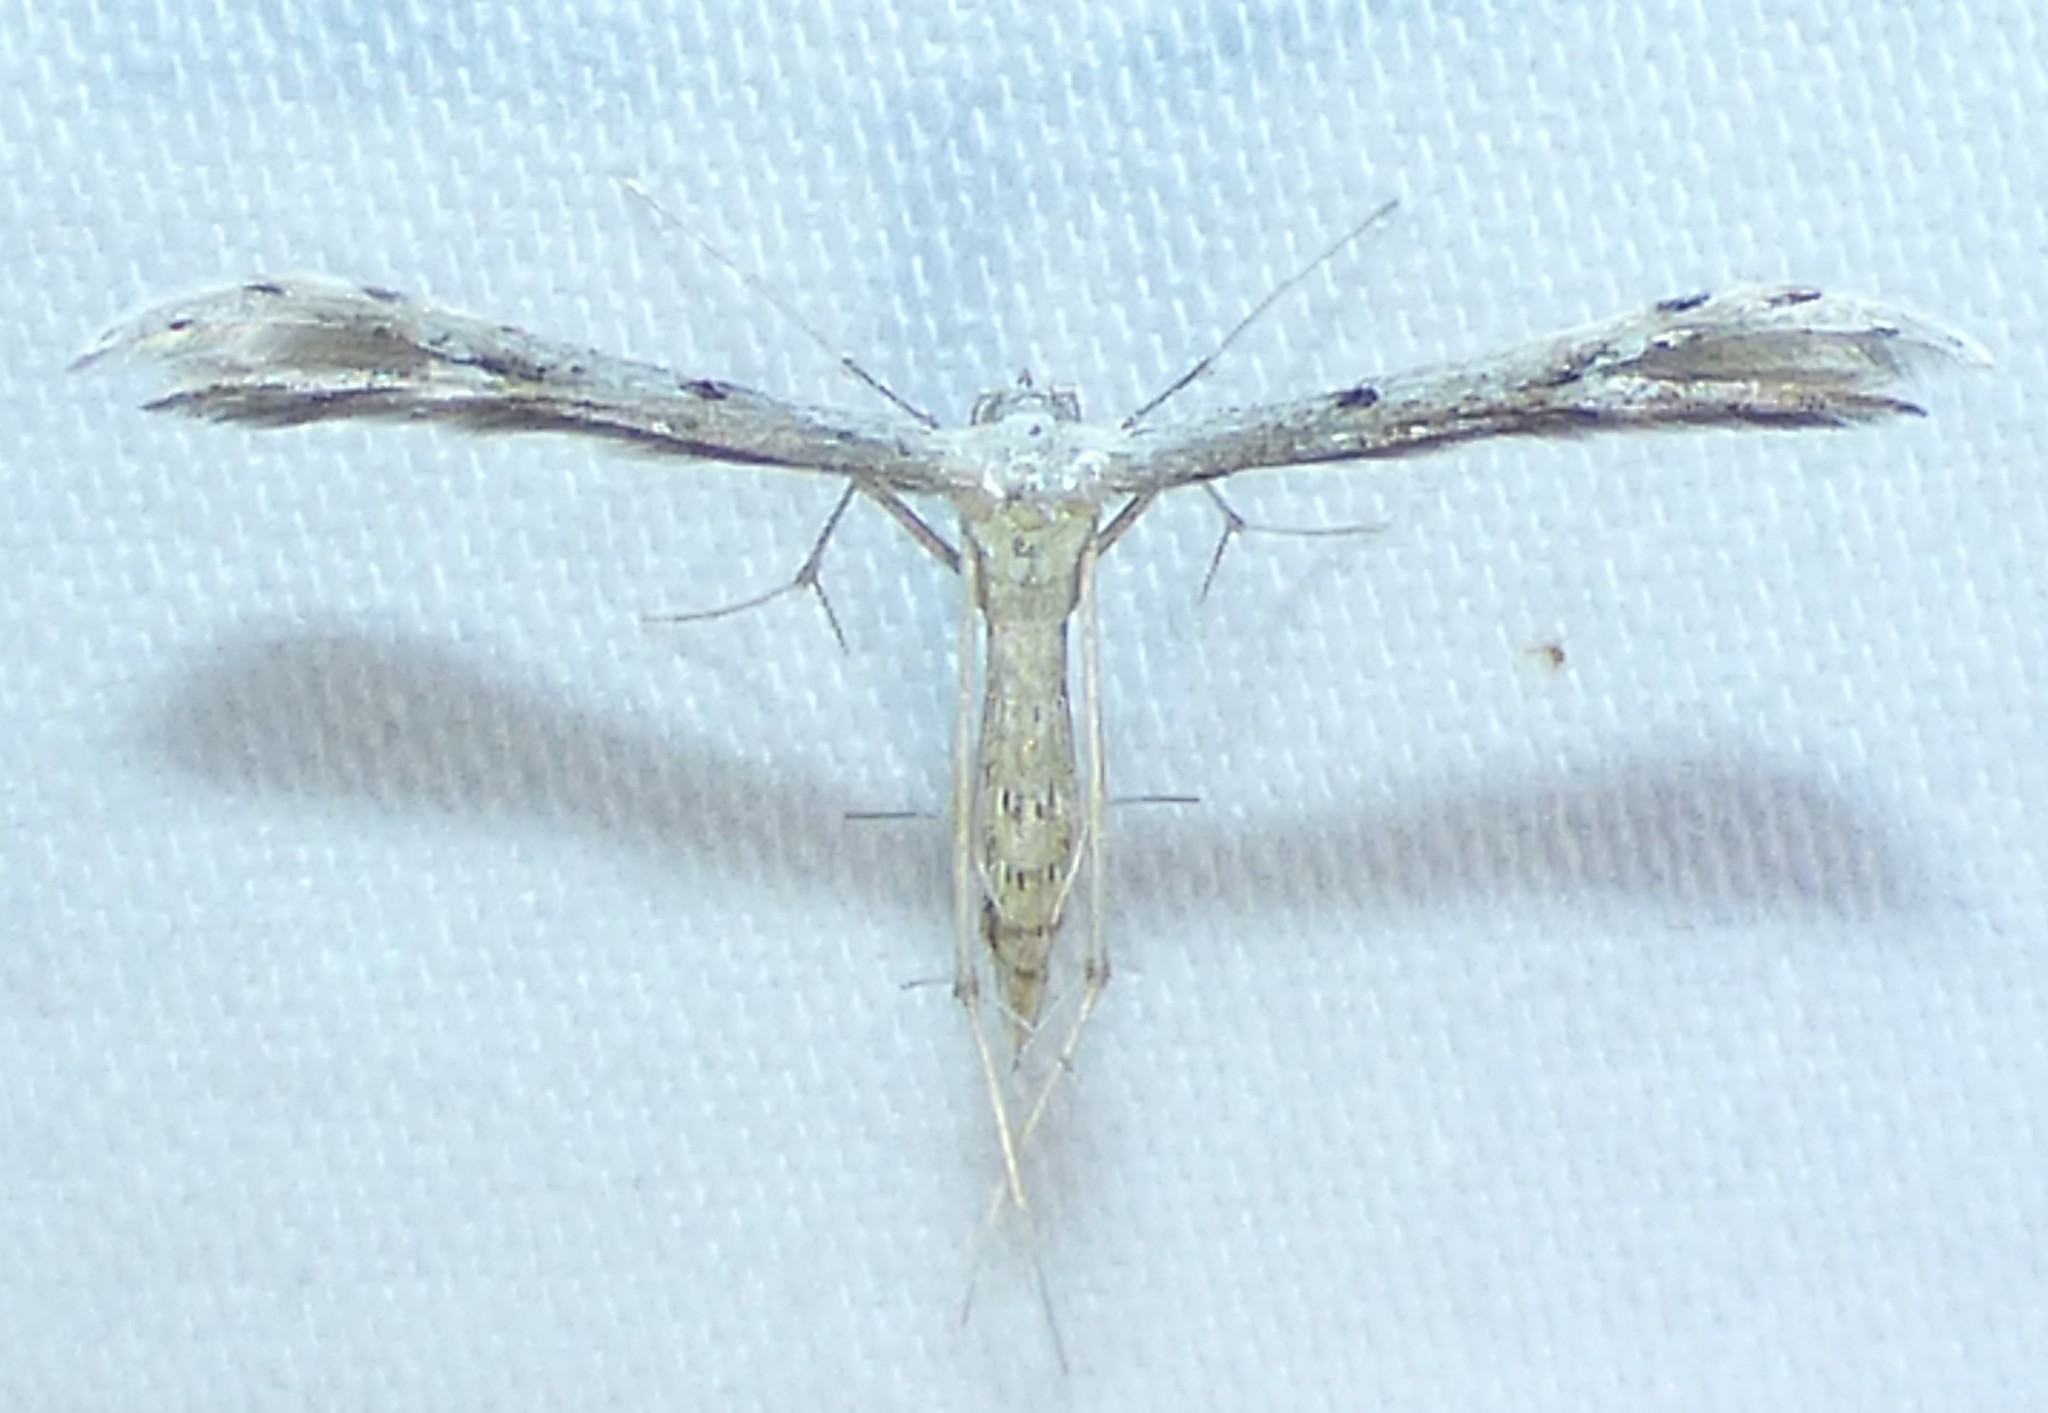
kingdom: Animalia
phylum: Arthropoda
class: Insecta
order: Lepidoptera
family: Pterophoridae
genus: Pselnophorus
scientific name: Pselnophorus belfragei
